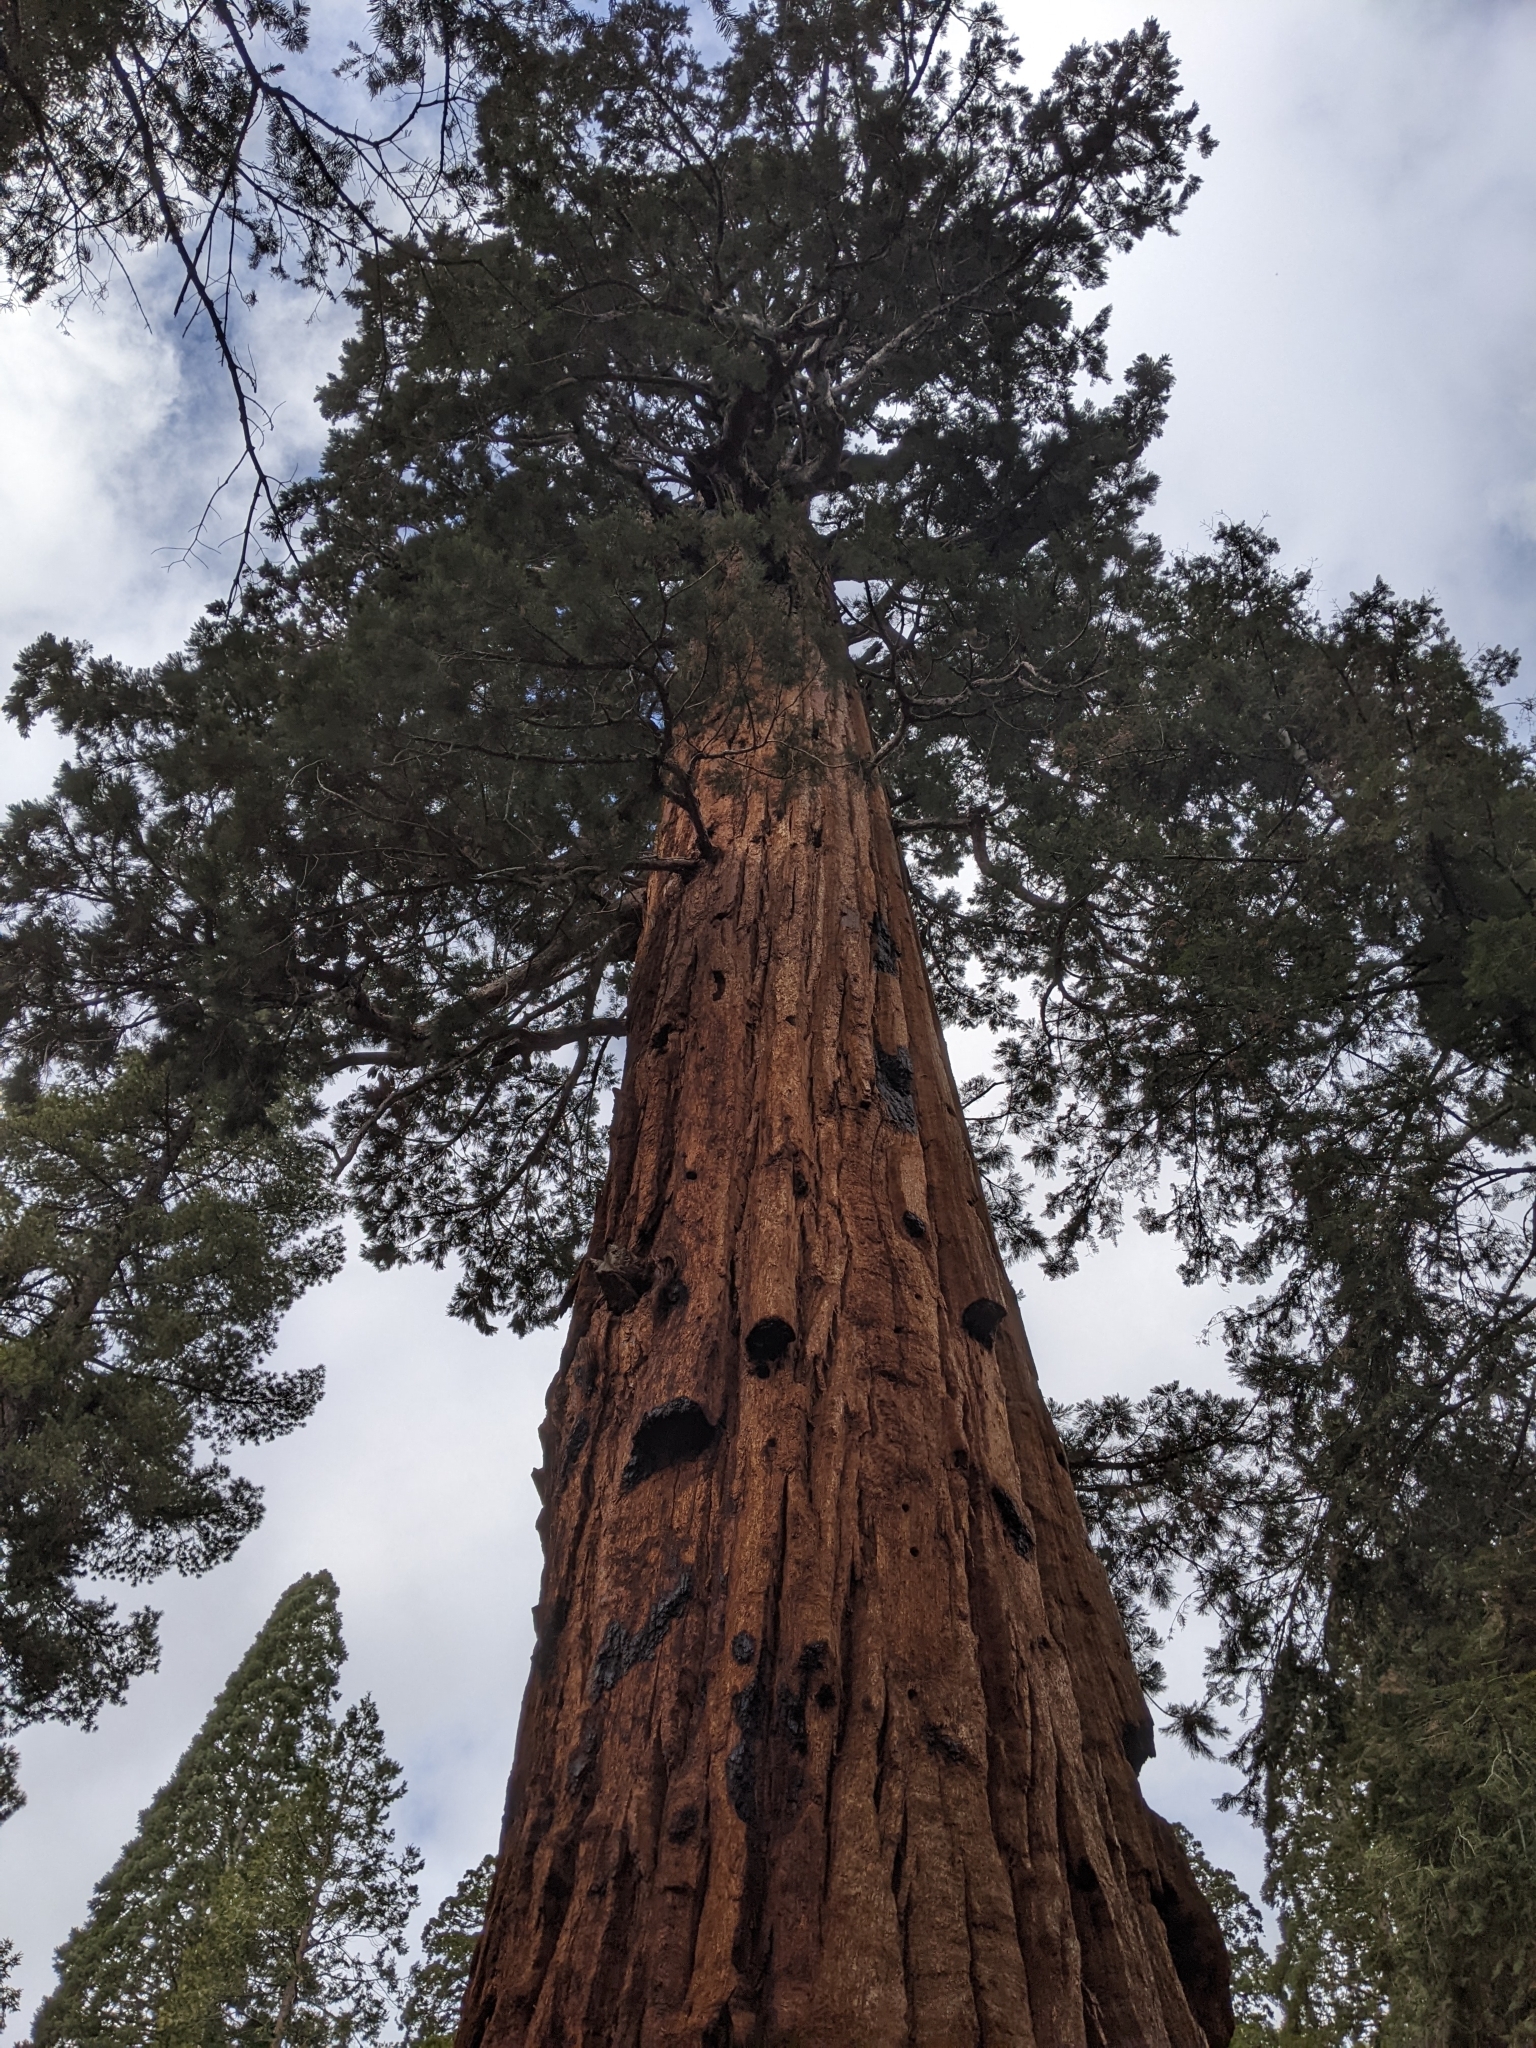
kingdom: Plantae
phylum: Tracheophyta
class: Pinopsida
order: Pinales
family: Cupressaceae
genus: Sequoiadendron
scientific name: Sequoiadendron giganteum
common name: Wellingtonia
